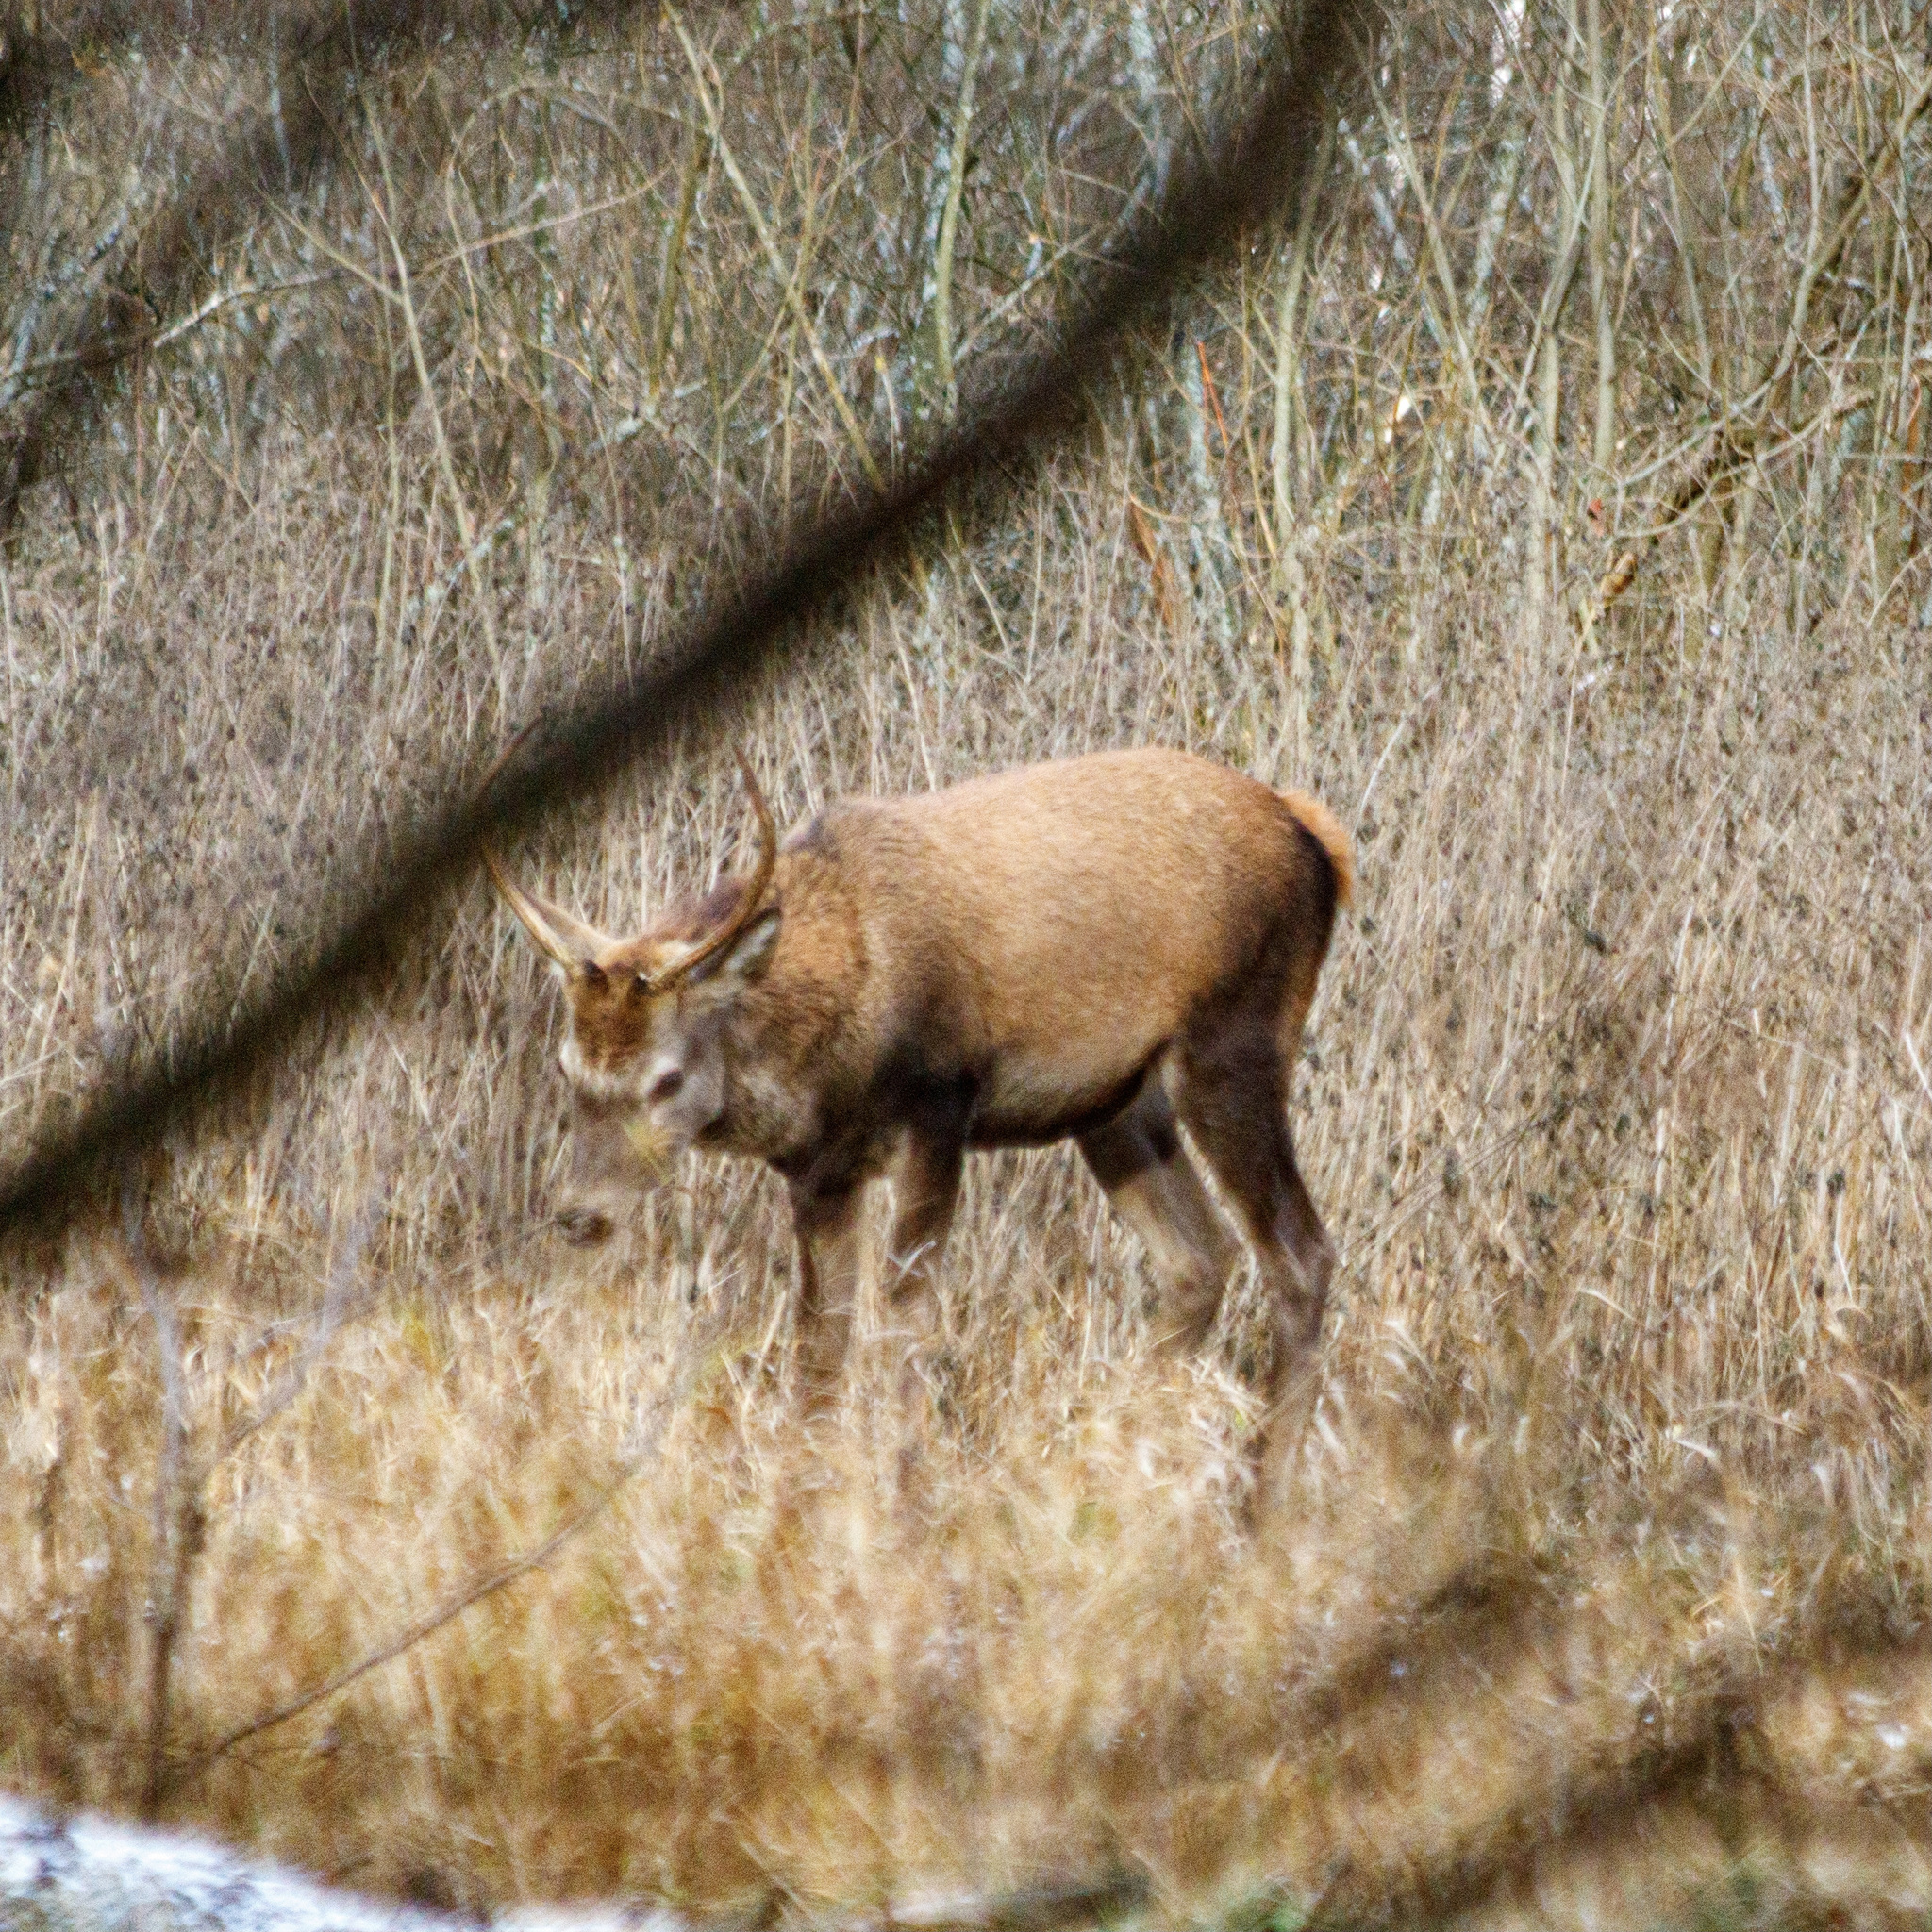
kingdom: Animalia
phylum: Chordata
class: Mammalia
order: Artiodactyla
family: Cervidae
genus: Cervus
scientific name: Cervus elaphus
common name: Red deer
